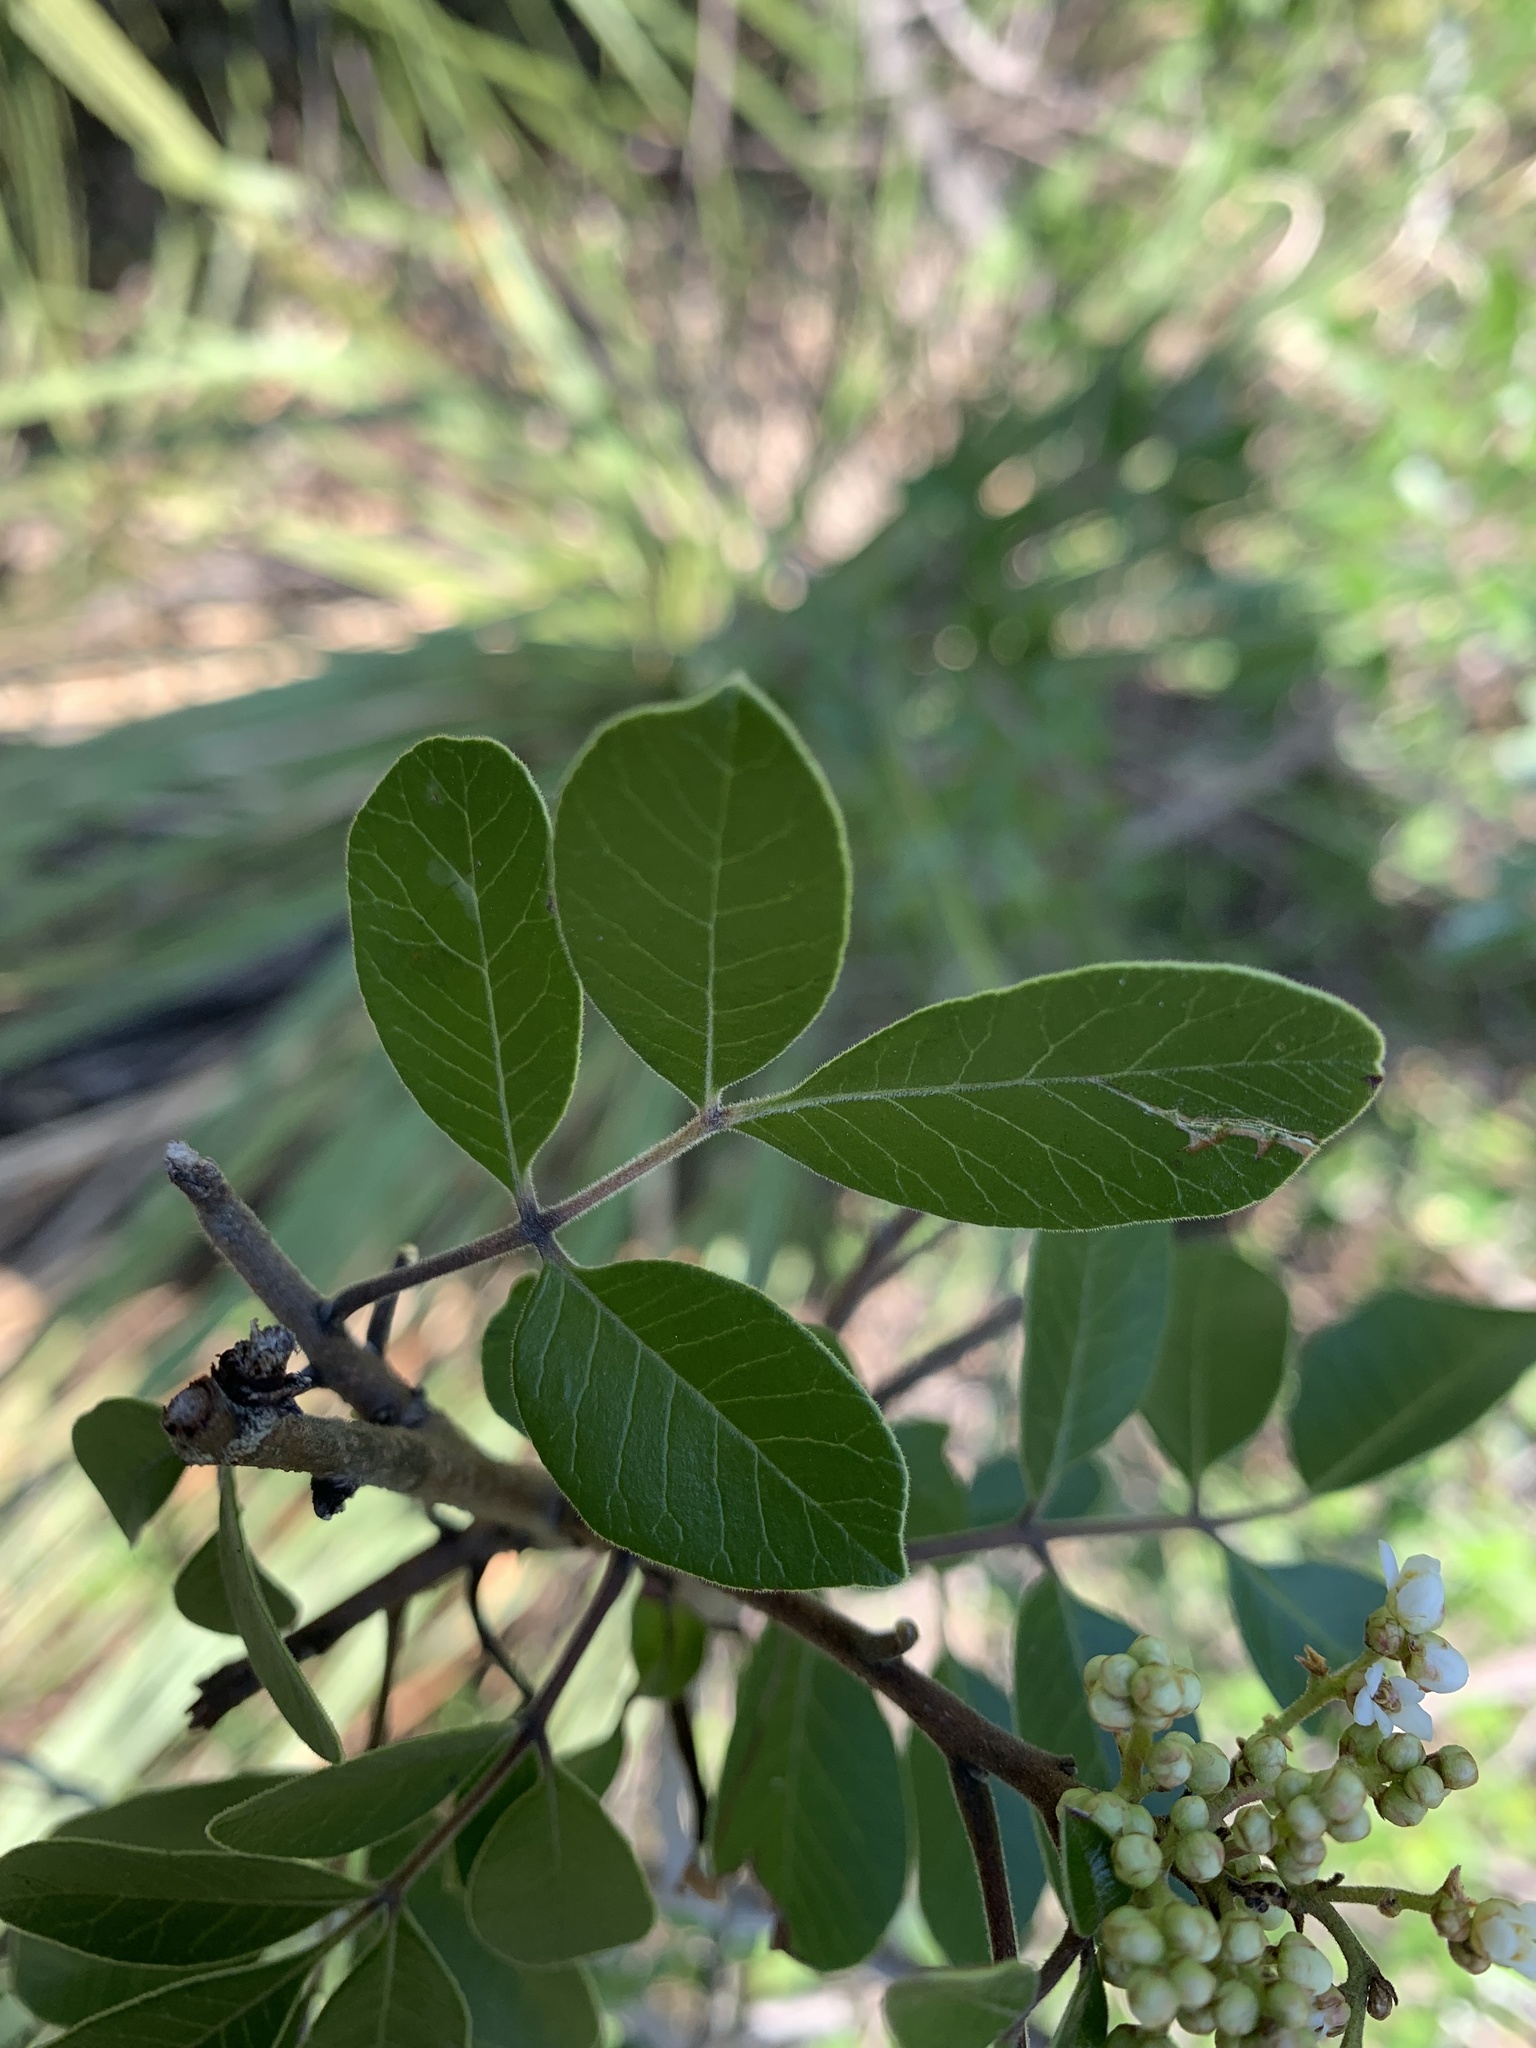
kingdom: Plantae
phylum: Tracheophyta
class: Magnoliopsida
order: Sapindales
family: Anacardiaceae
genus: Rhus
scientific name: Rhus virens
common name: Evergreen sumac
